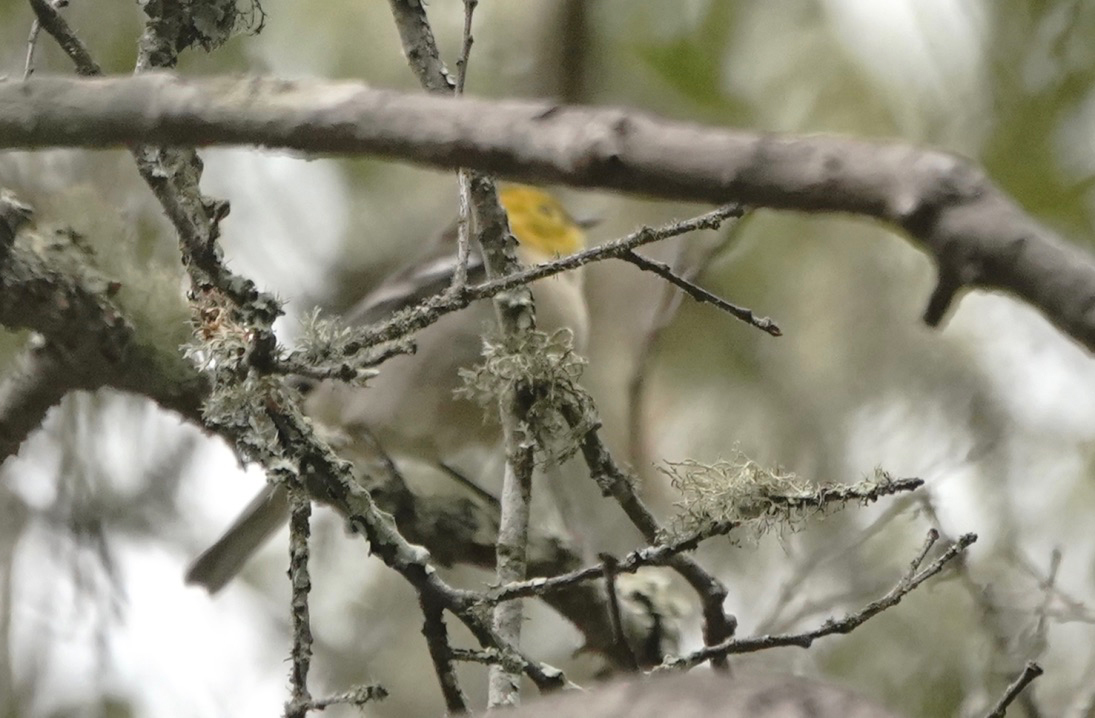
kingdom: Animalia
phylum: Chordata
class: Aves
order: Passeriformes
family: Parulidae
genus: Setophaga
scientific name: Setophaga occidentalis
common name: Hermit warbler
